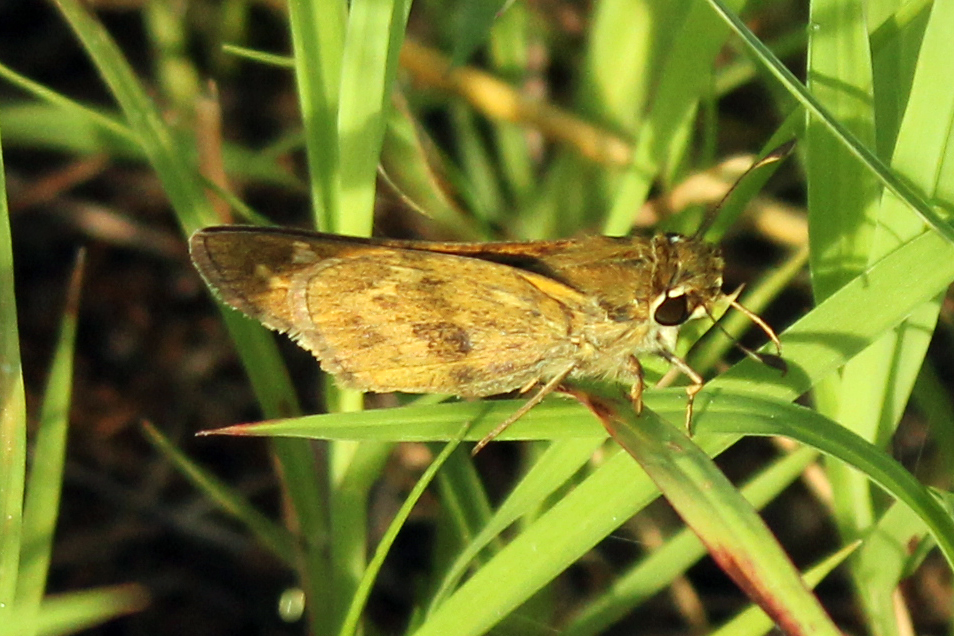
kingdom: Animalia
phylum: Arthropoda
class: Insecta
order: Lepidoptera
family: Hesperiidae
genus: Atalopedes
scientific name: Atalopedes
